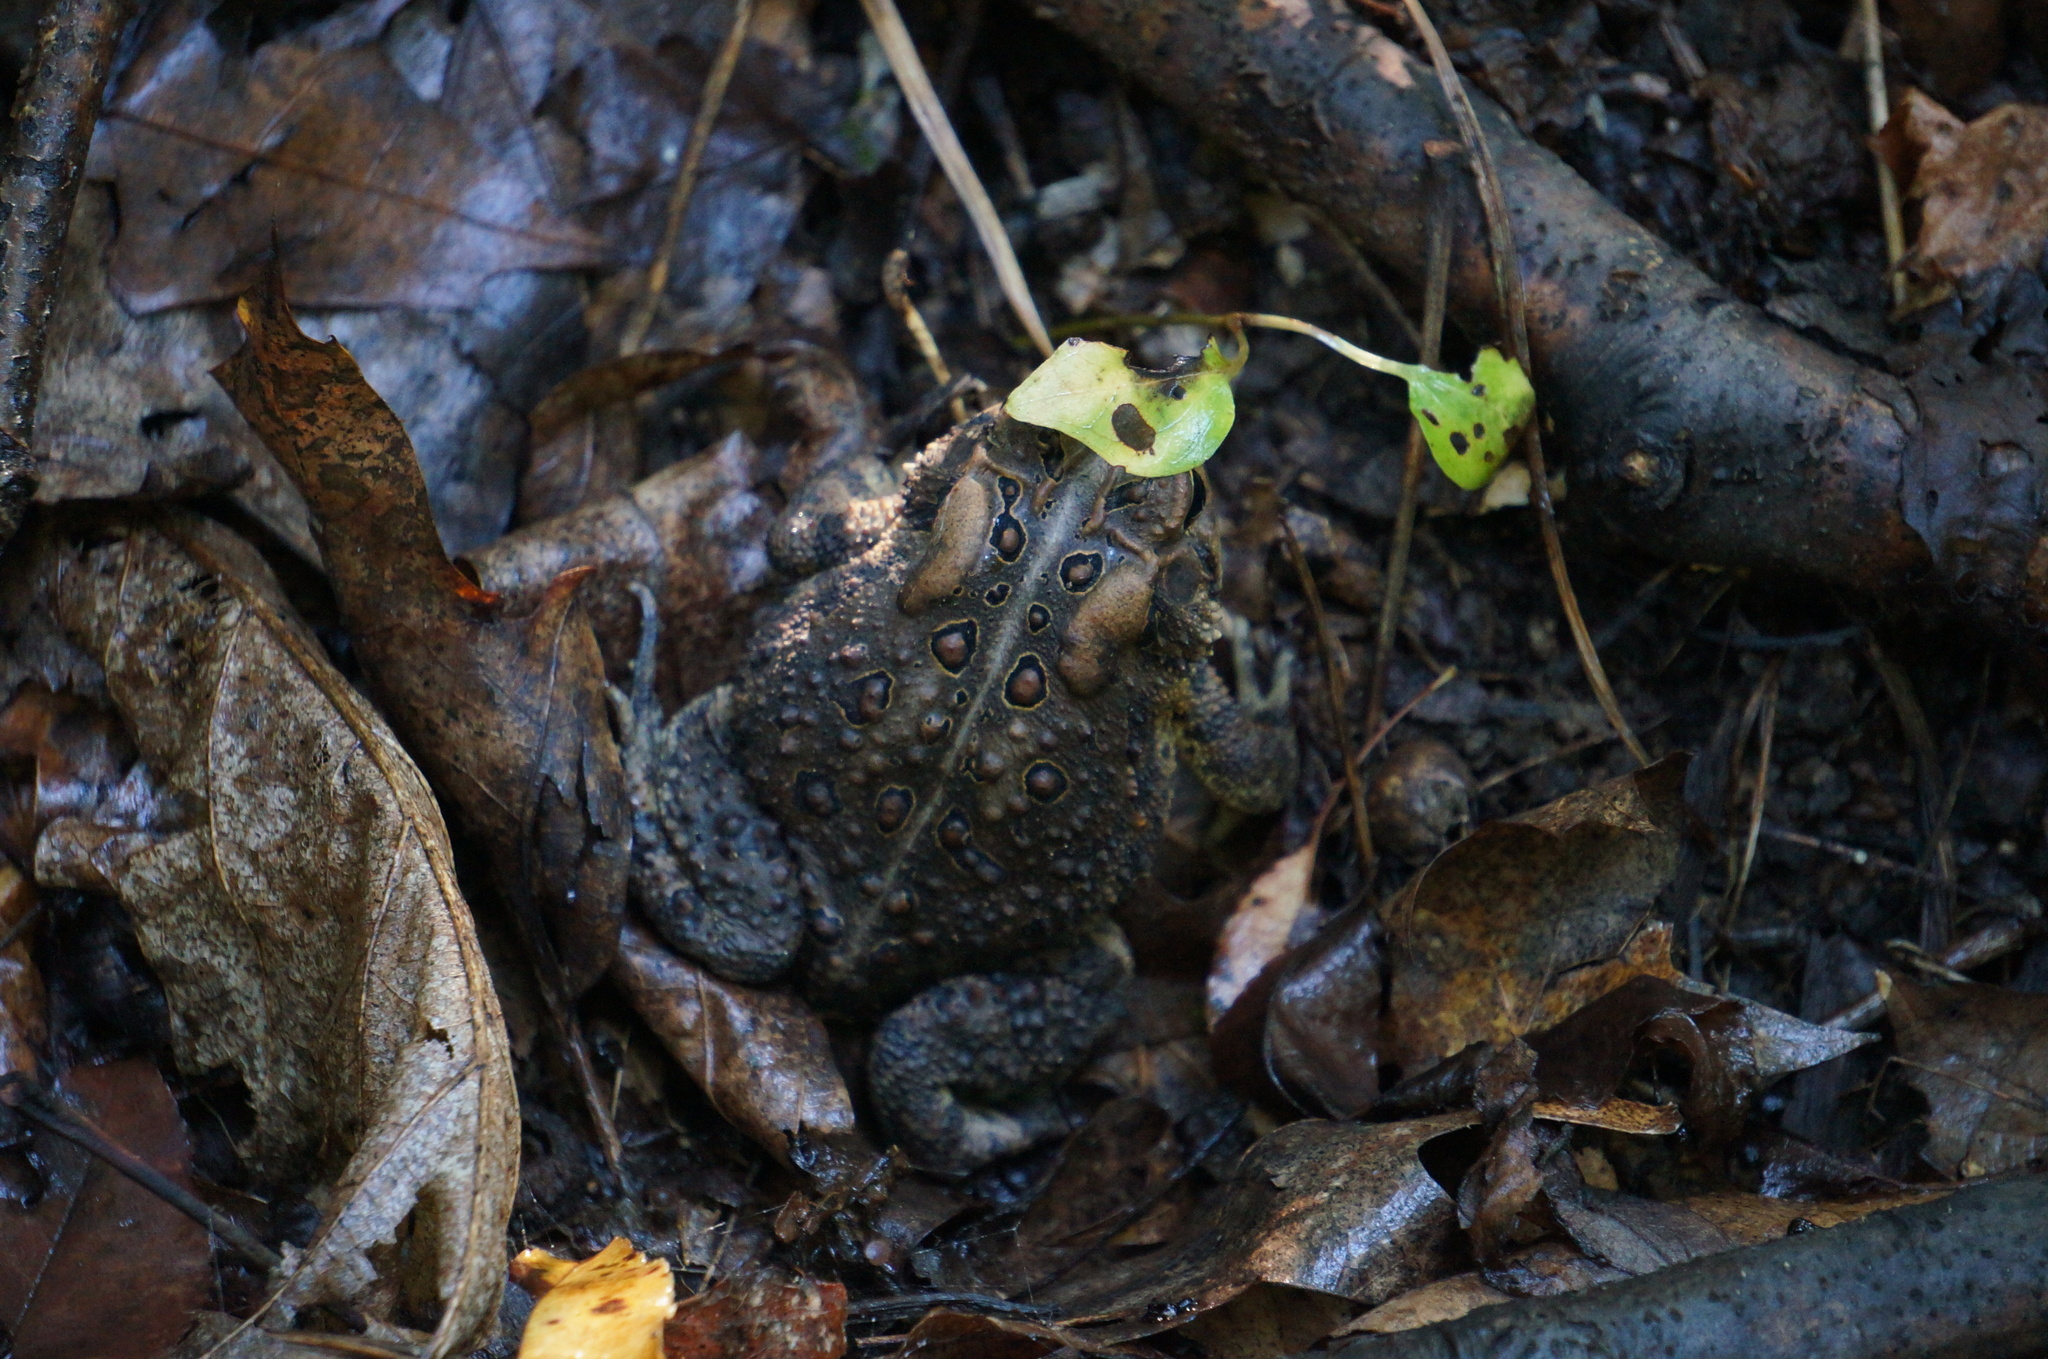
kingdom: Animalia
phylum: Chordata
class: Amphibia
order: Anura
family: Bufonidae
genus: Anaxyrus
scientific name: Anaxyrus americanus
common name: American toad
